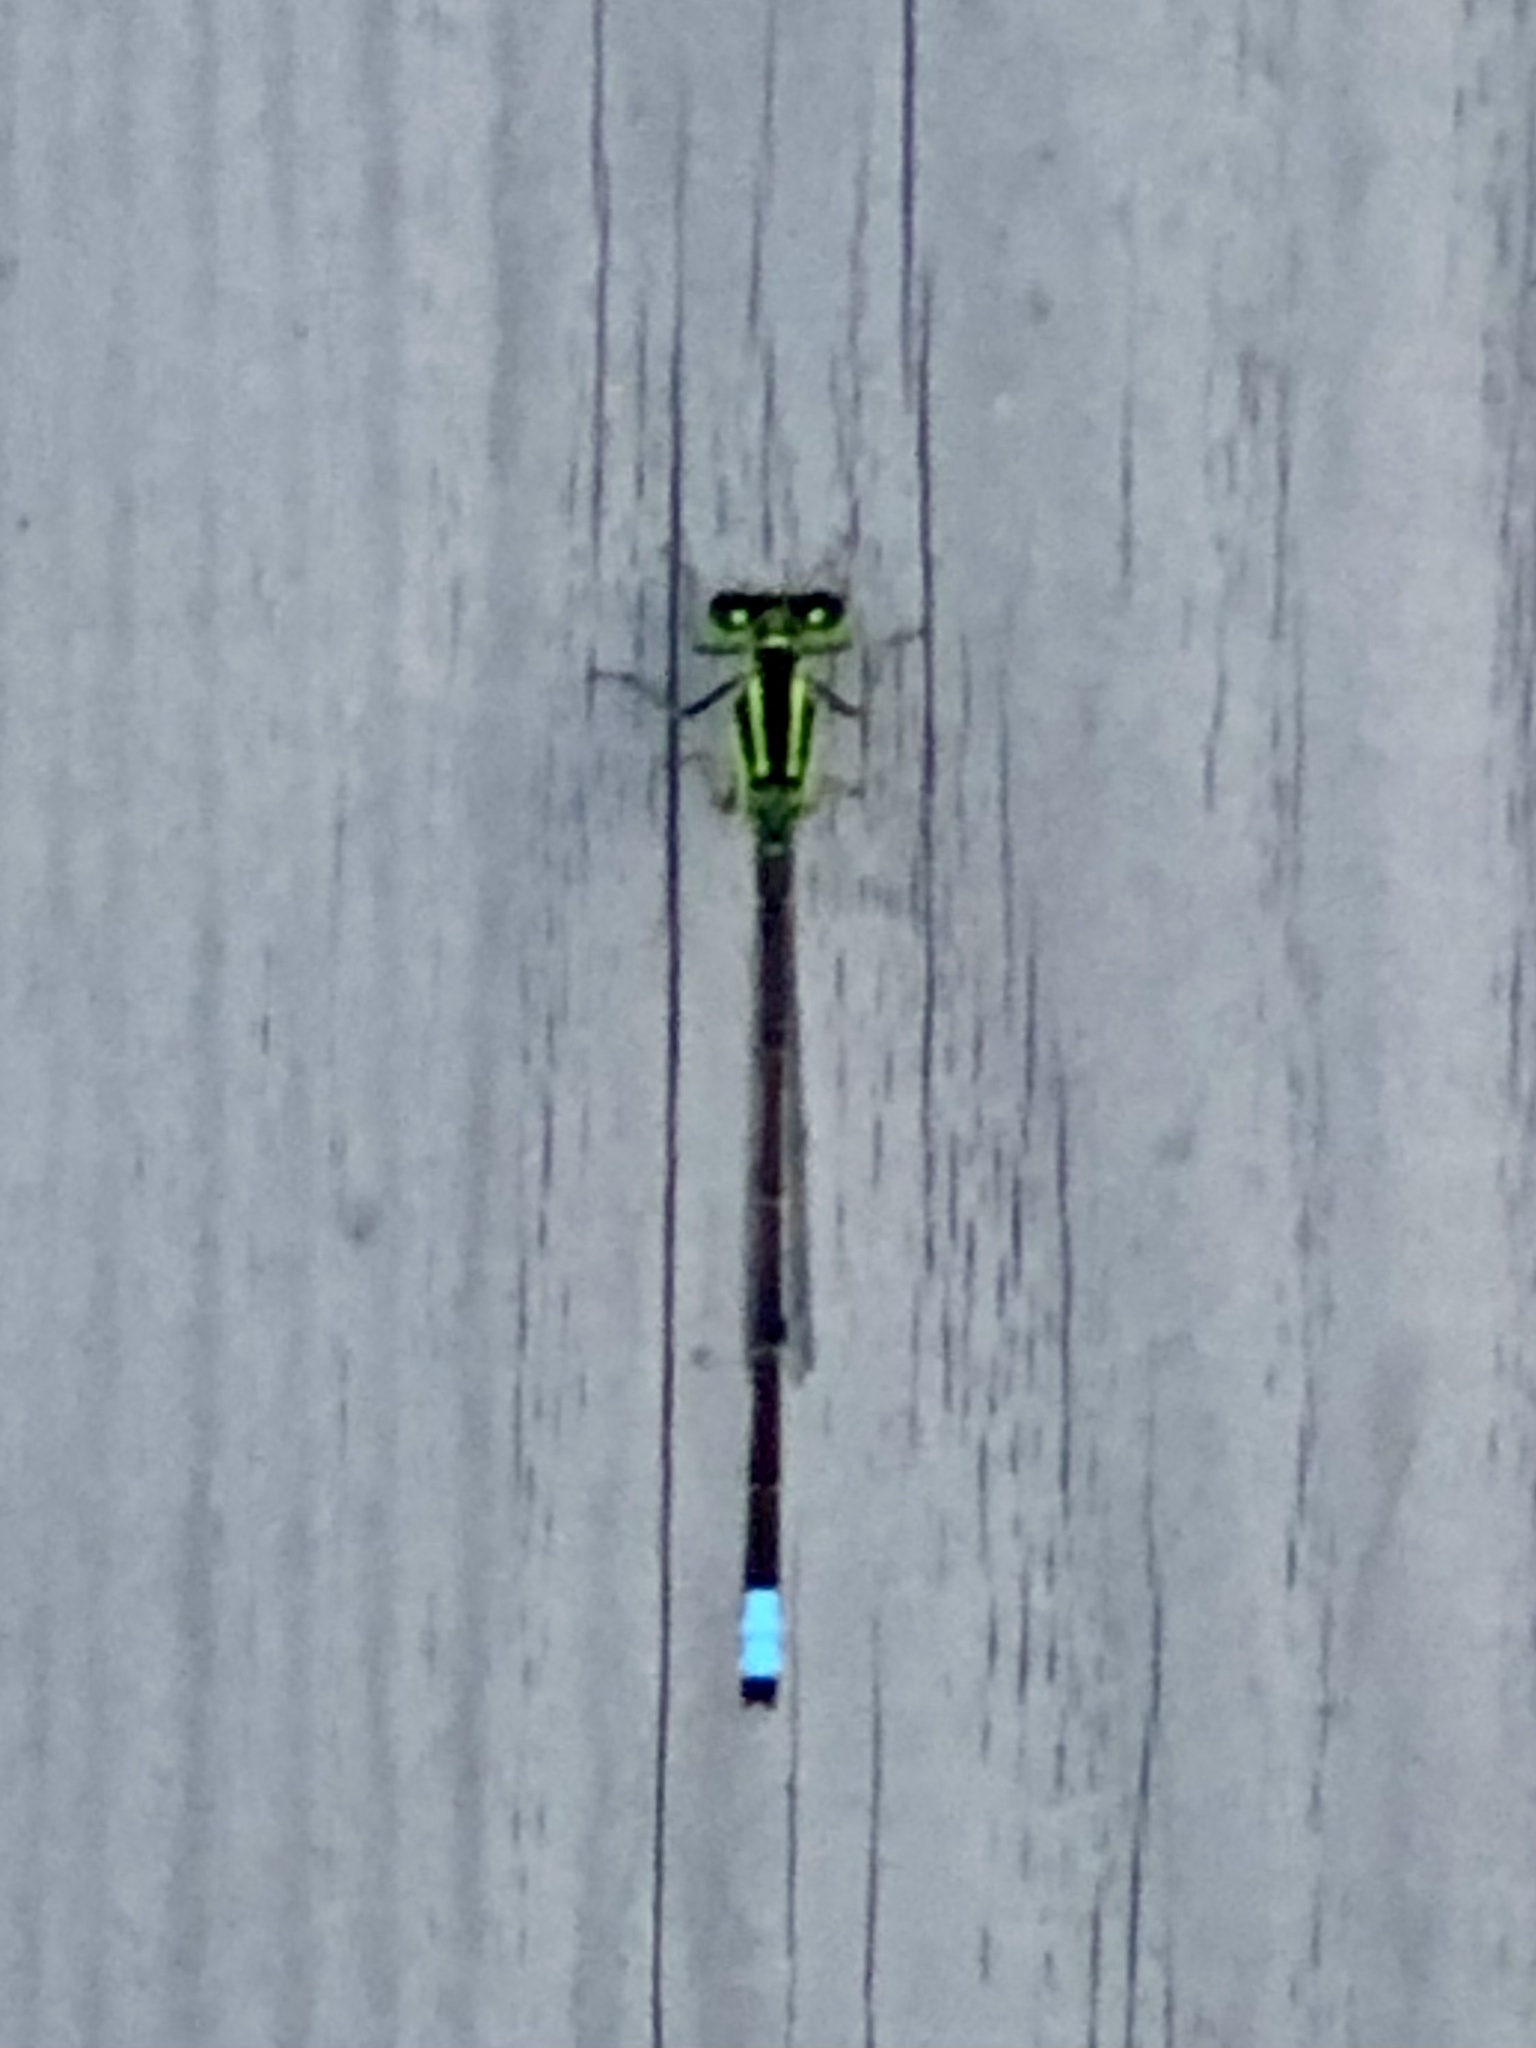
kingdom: Animalia
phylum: Arthropoda
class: Insecta
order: Odonata
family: Coenagrionidae
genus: Ischnura
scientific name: Ischnura verticalis
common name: Eastern forktail
